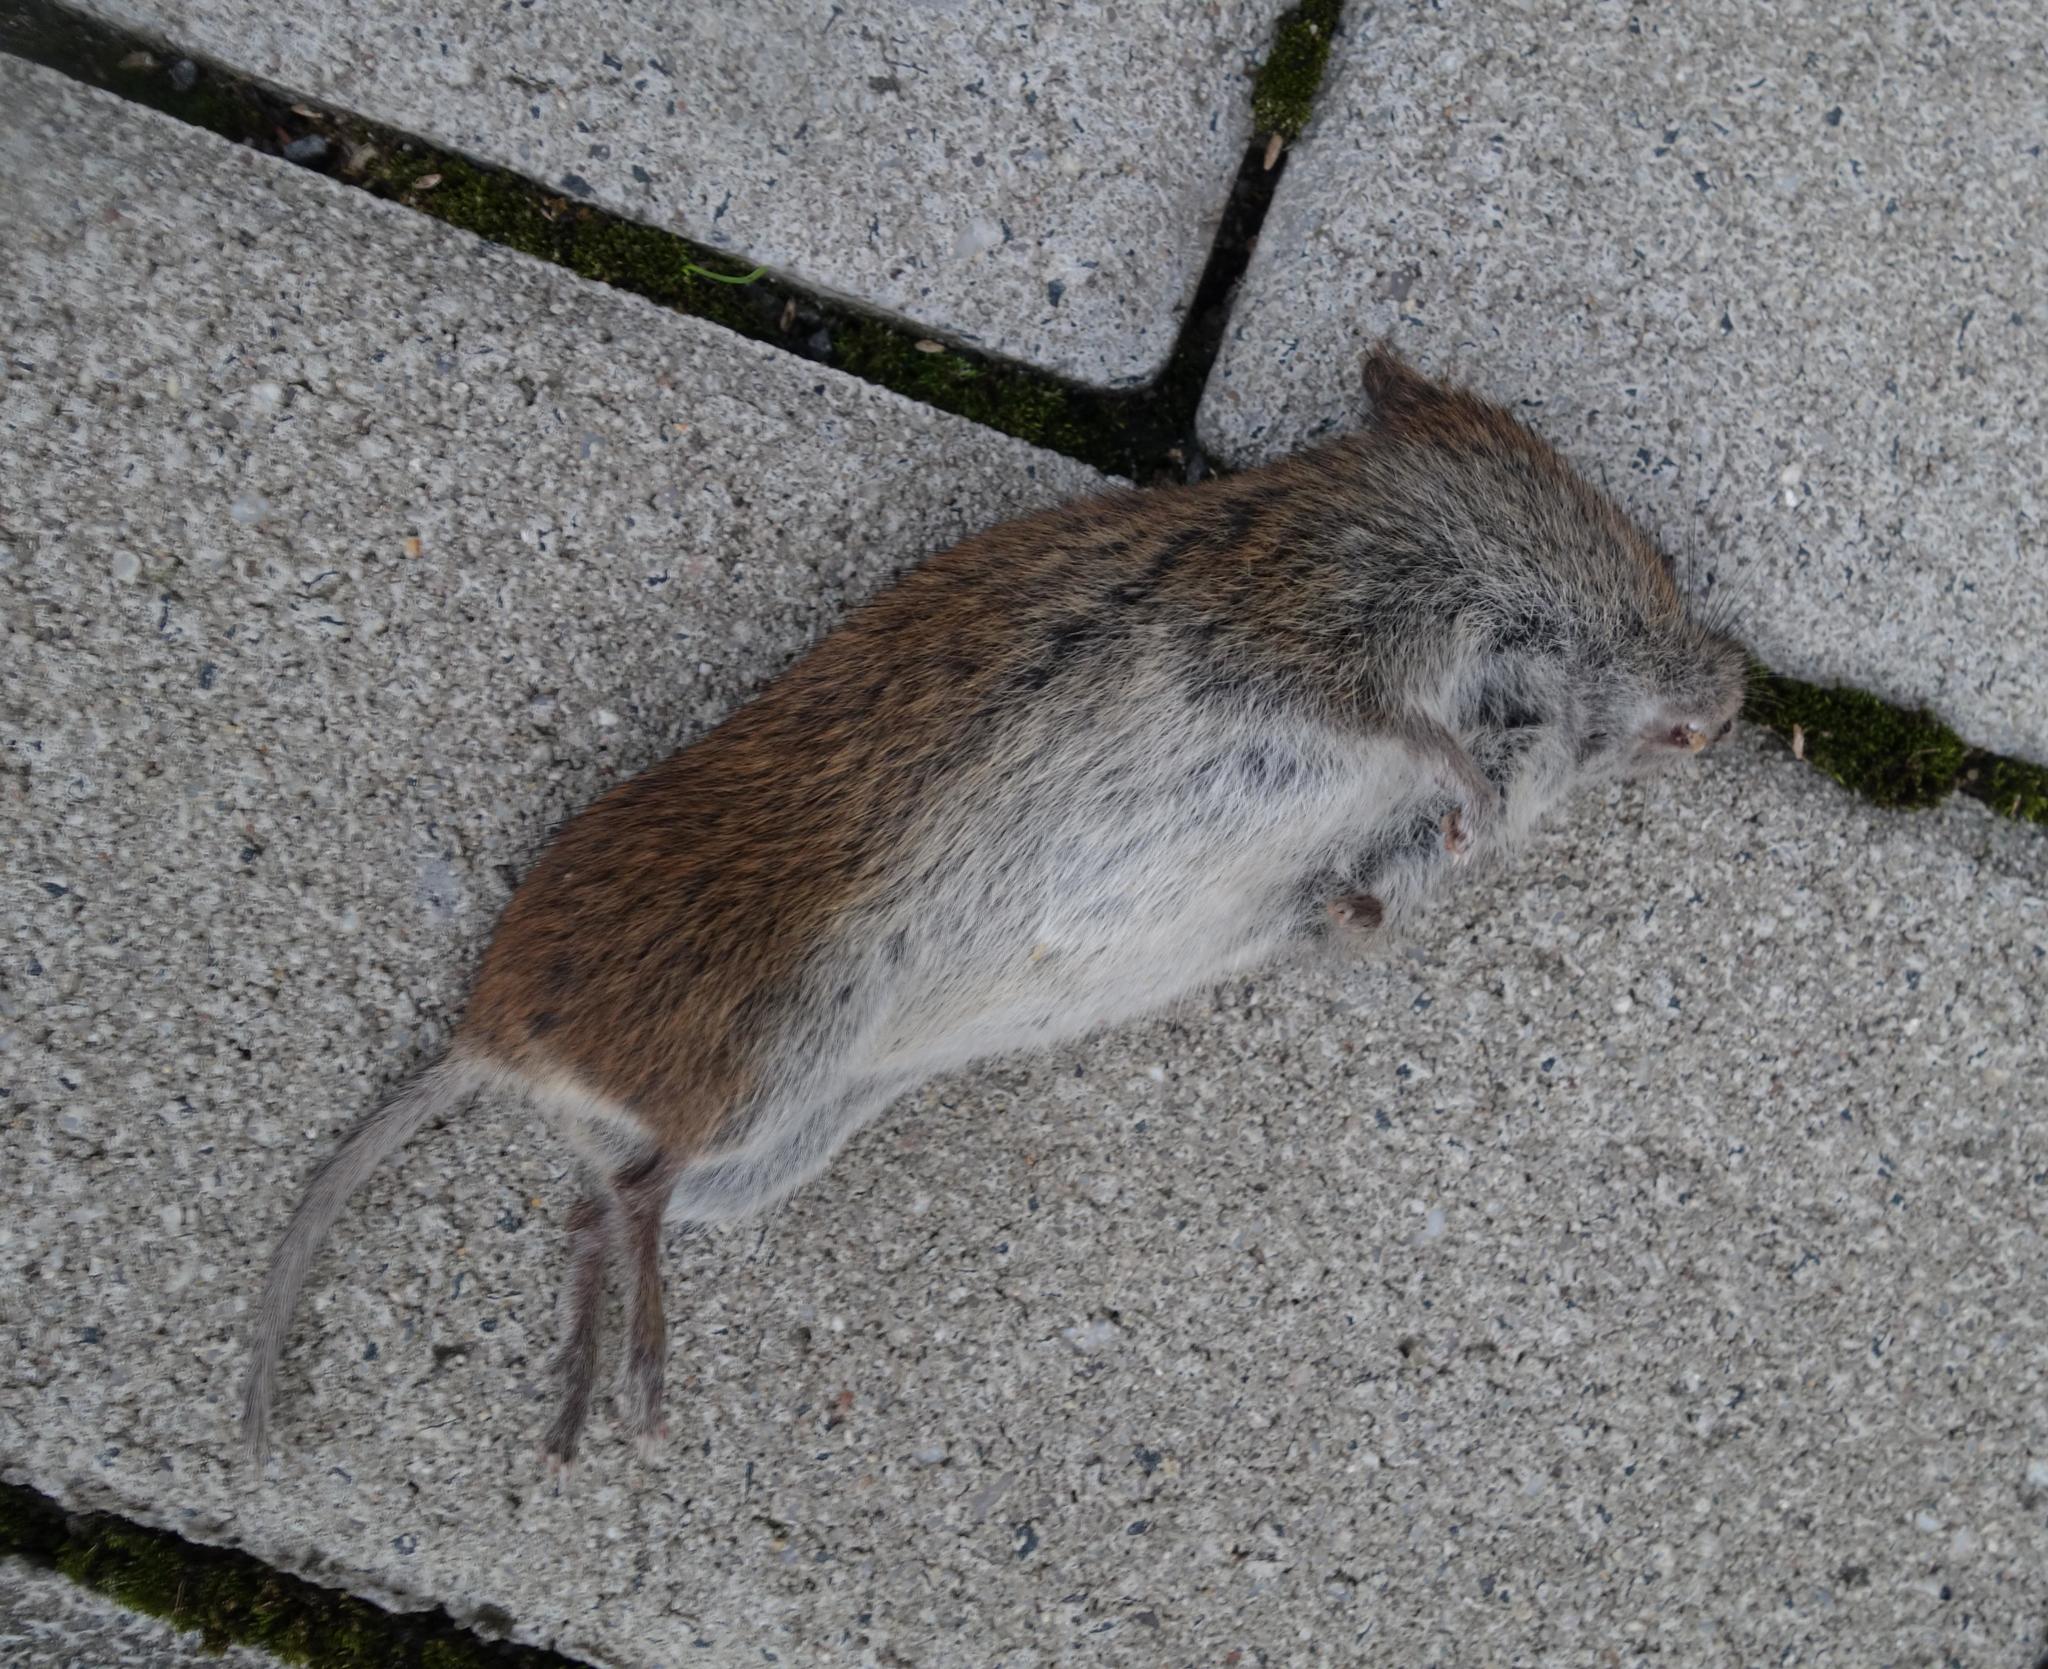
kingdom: Animalia
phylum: Chordata
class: Mammalia
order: Rodentia
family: Cricetidae
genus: Myodes
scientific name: Myodes glareolus
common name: Bank vole
